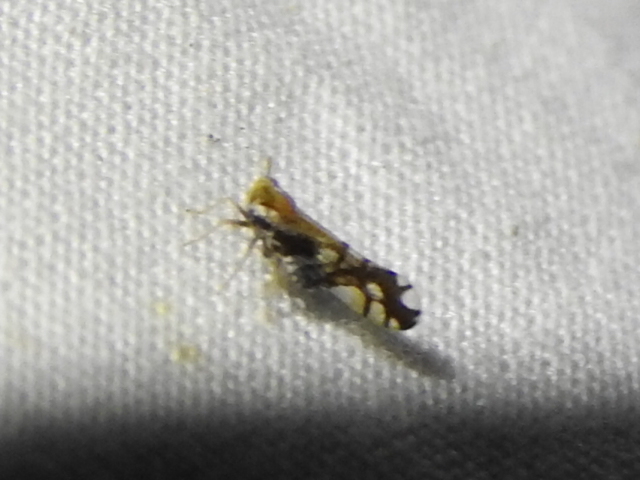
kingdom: Animalia
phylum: Arthropoda
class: Insecta
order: Hemiptera
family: Delphacidae
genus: Liburniella
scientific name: Liburniella ornata
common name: Ornate planthopper
